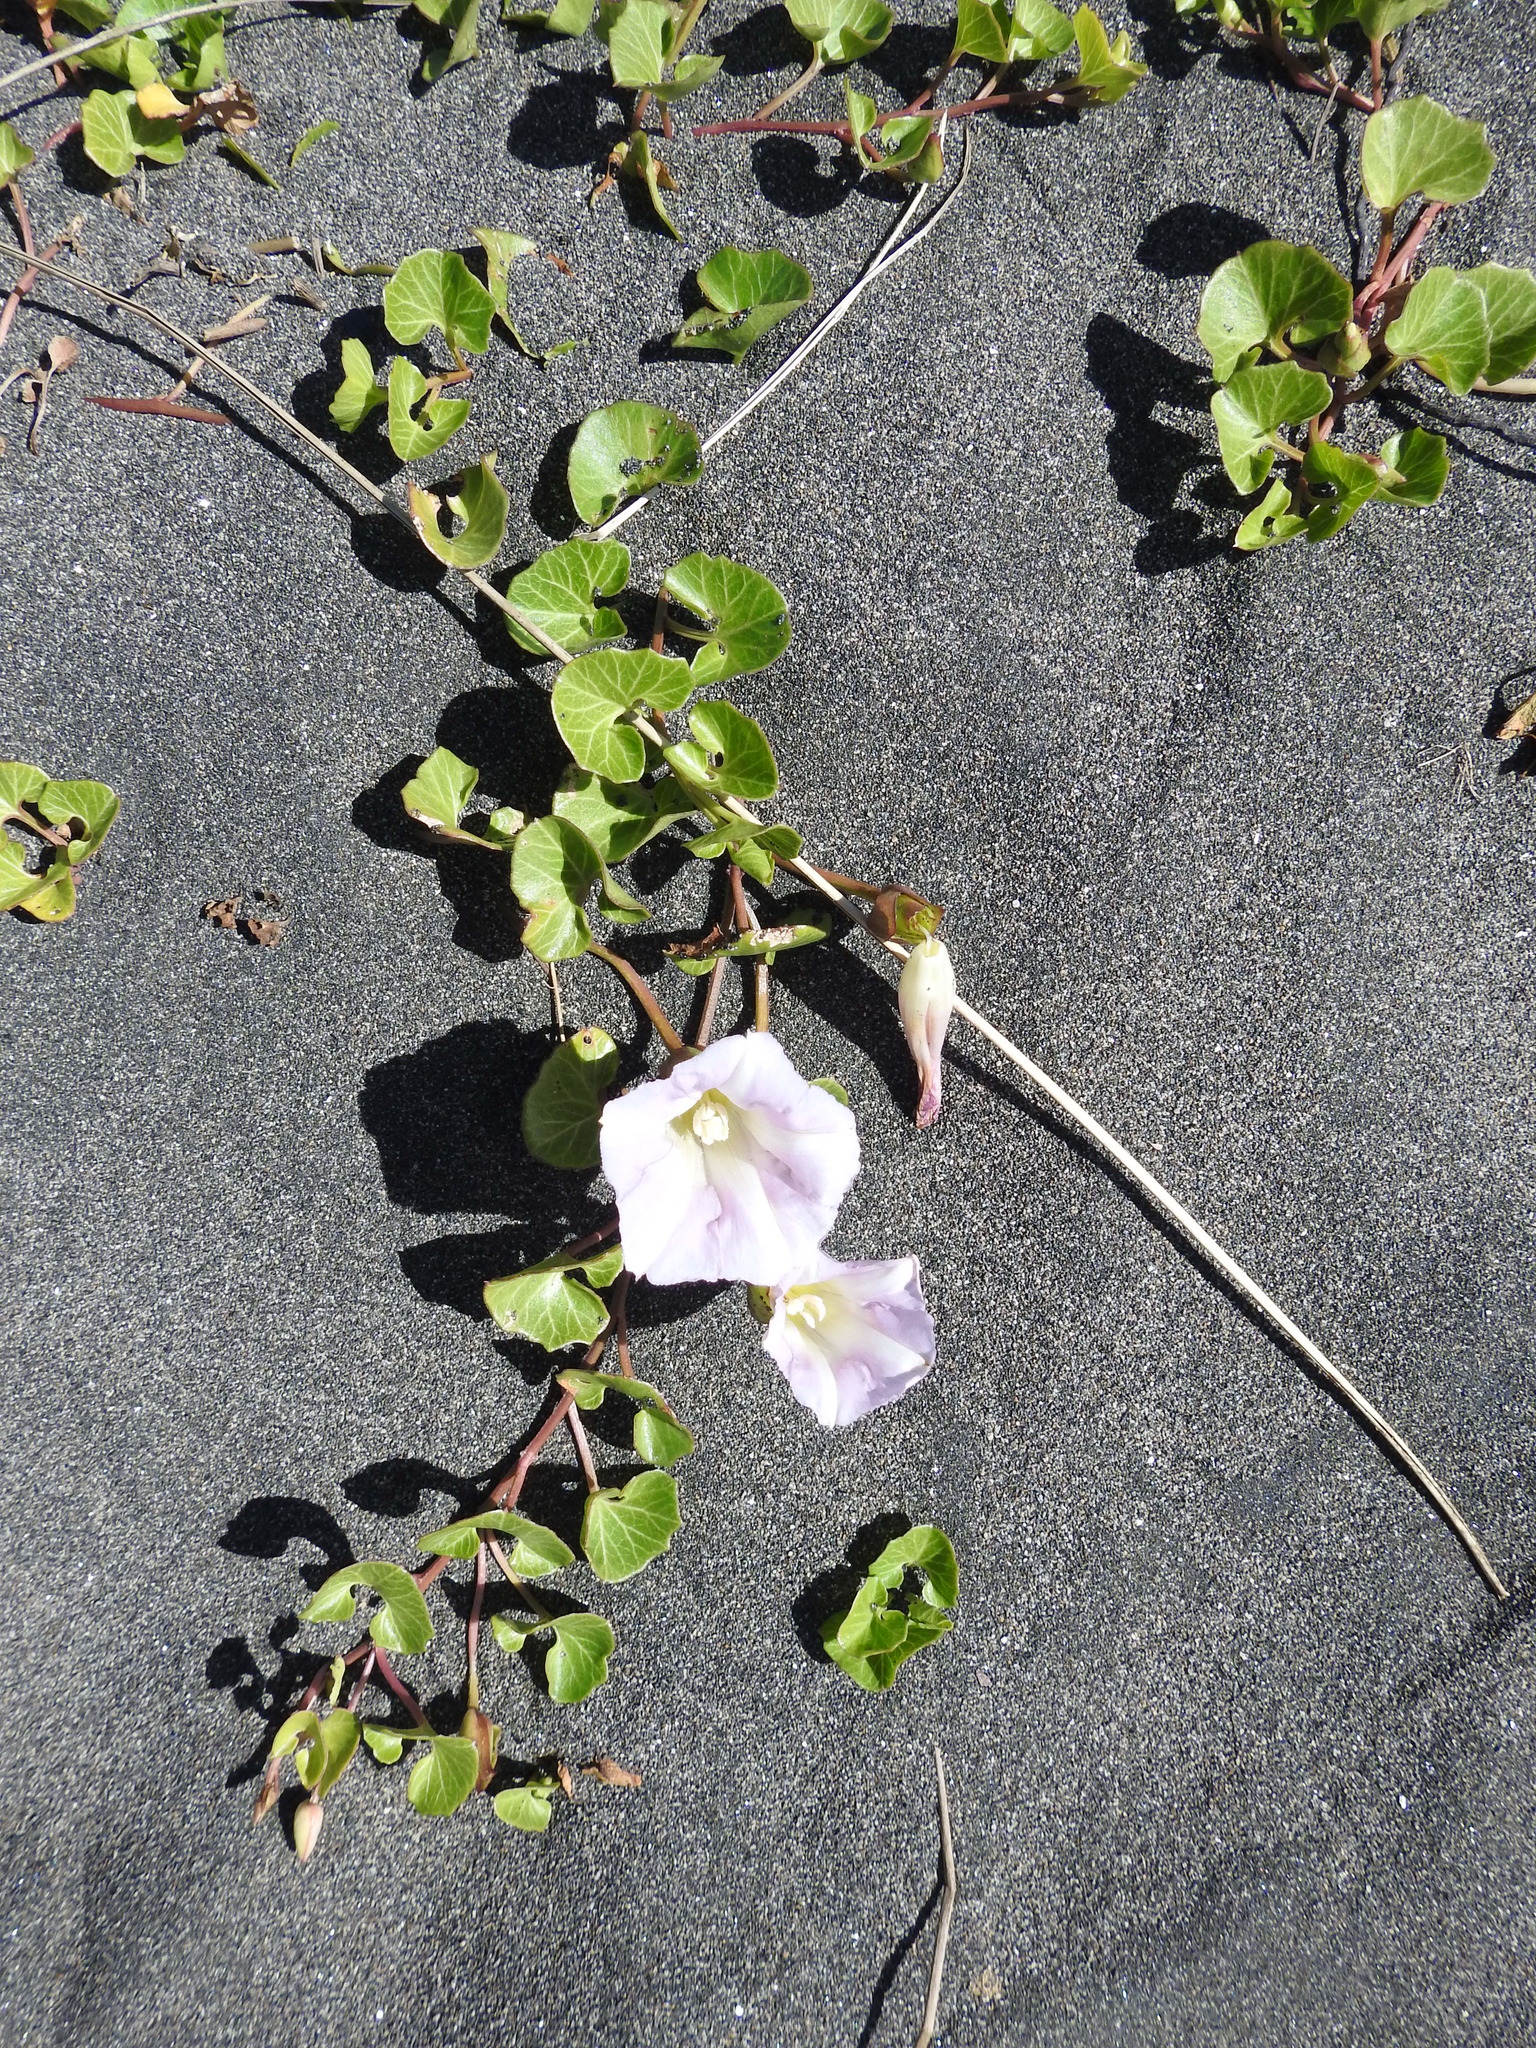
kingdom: Plantae
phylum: Tracheophyta
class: Magnoliopsida
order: Solanales
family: Convolvulaceae
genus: Calystegia
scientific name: Calystegia soldanella
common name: Sea bindweed
